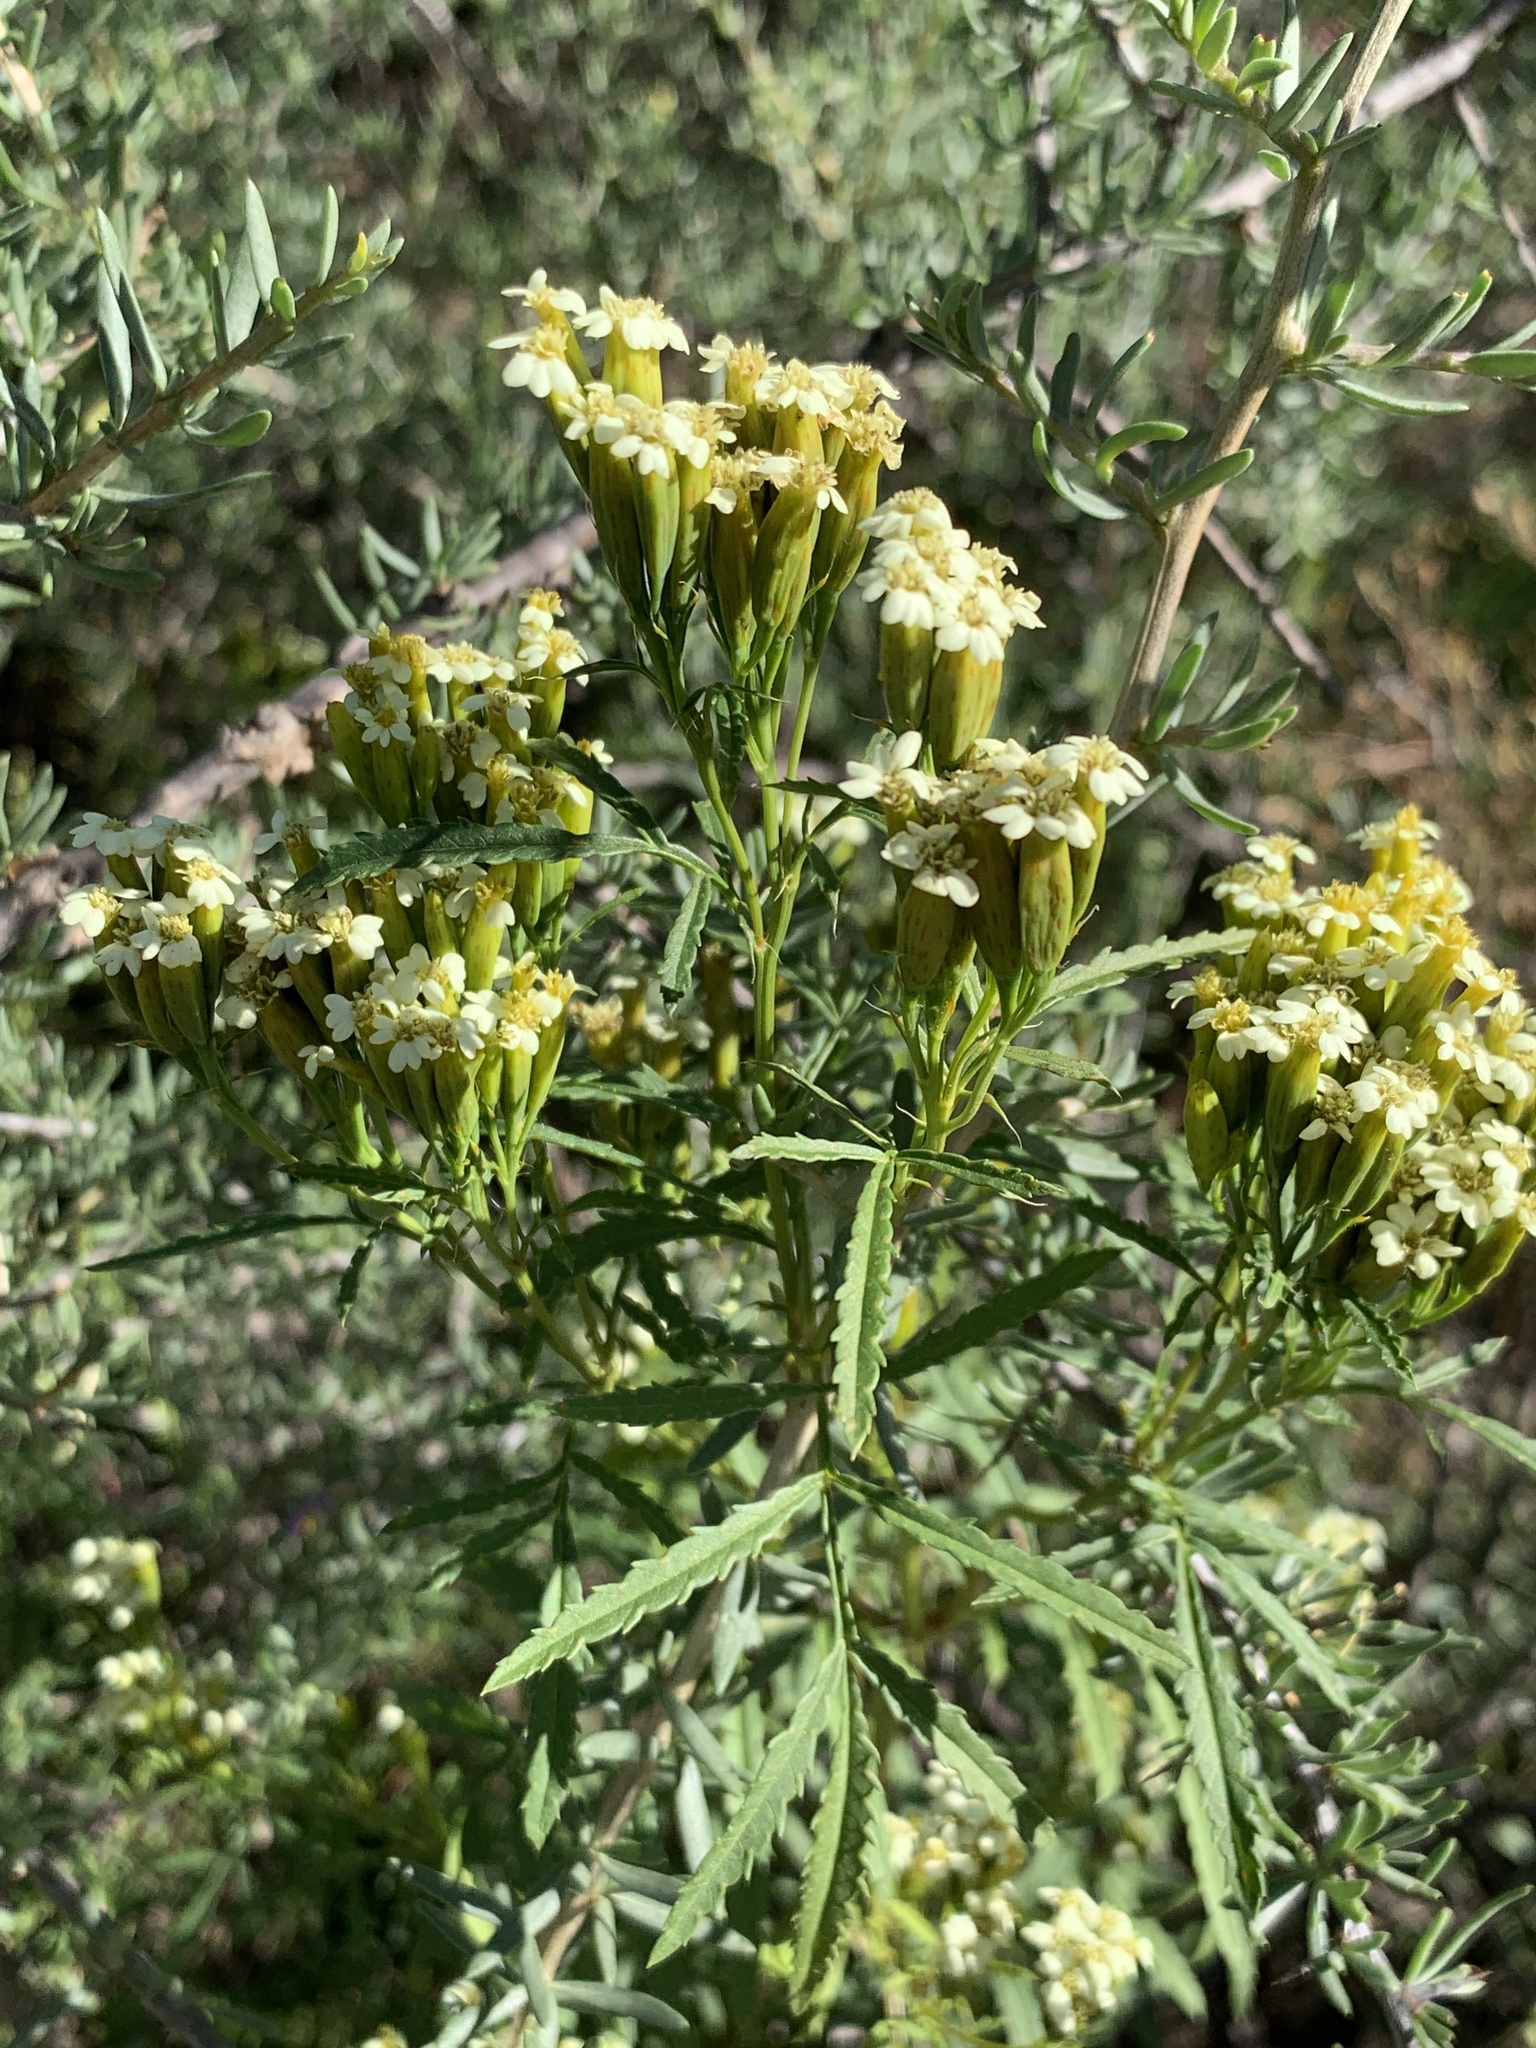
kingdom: Plantae
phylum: Tracheophyta
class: Magnoliopsida
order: Asterales
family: Asteraceae
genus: Tagetes
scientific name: Tagetes minuta
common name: Muster john henry
